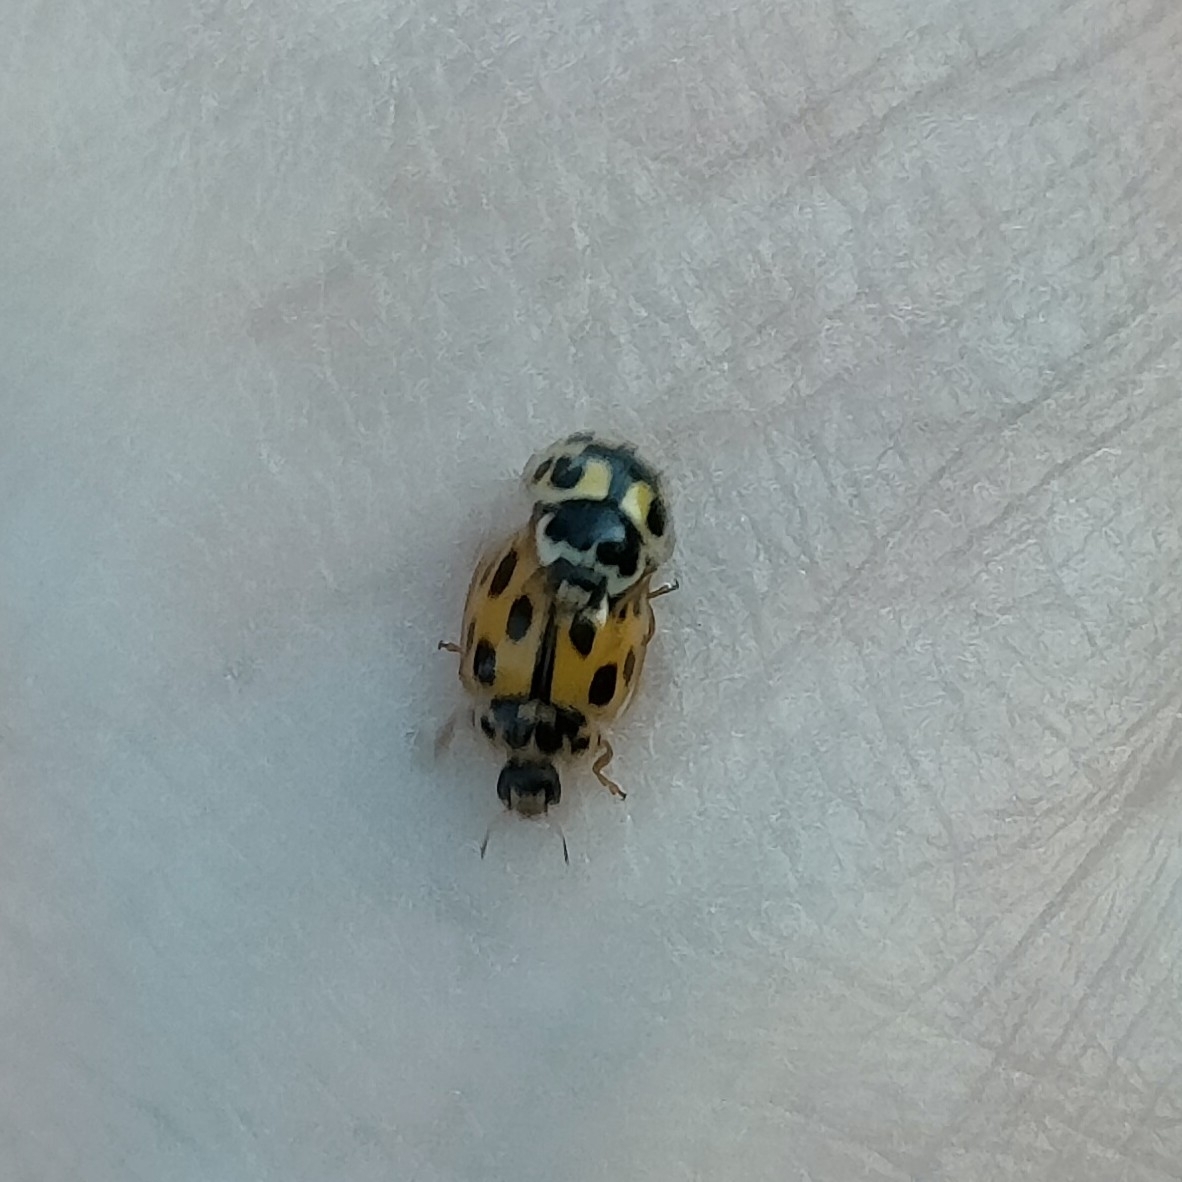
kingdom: Animalia
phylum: Arthropoda
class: Insecta
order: Coleoptera
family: Coccinellidae
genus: Propylaea
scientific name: Propylaea quatuordecimpunctata
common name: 14-spotted ladybird beetle
